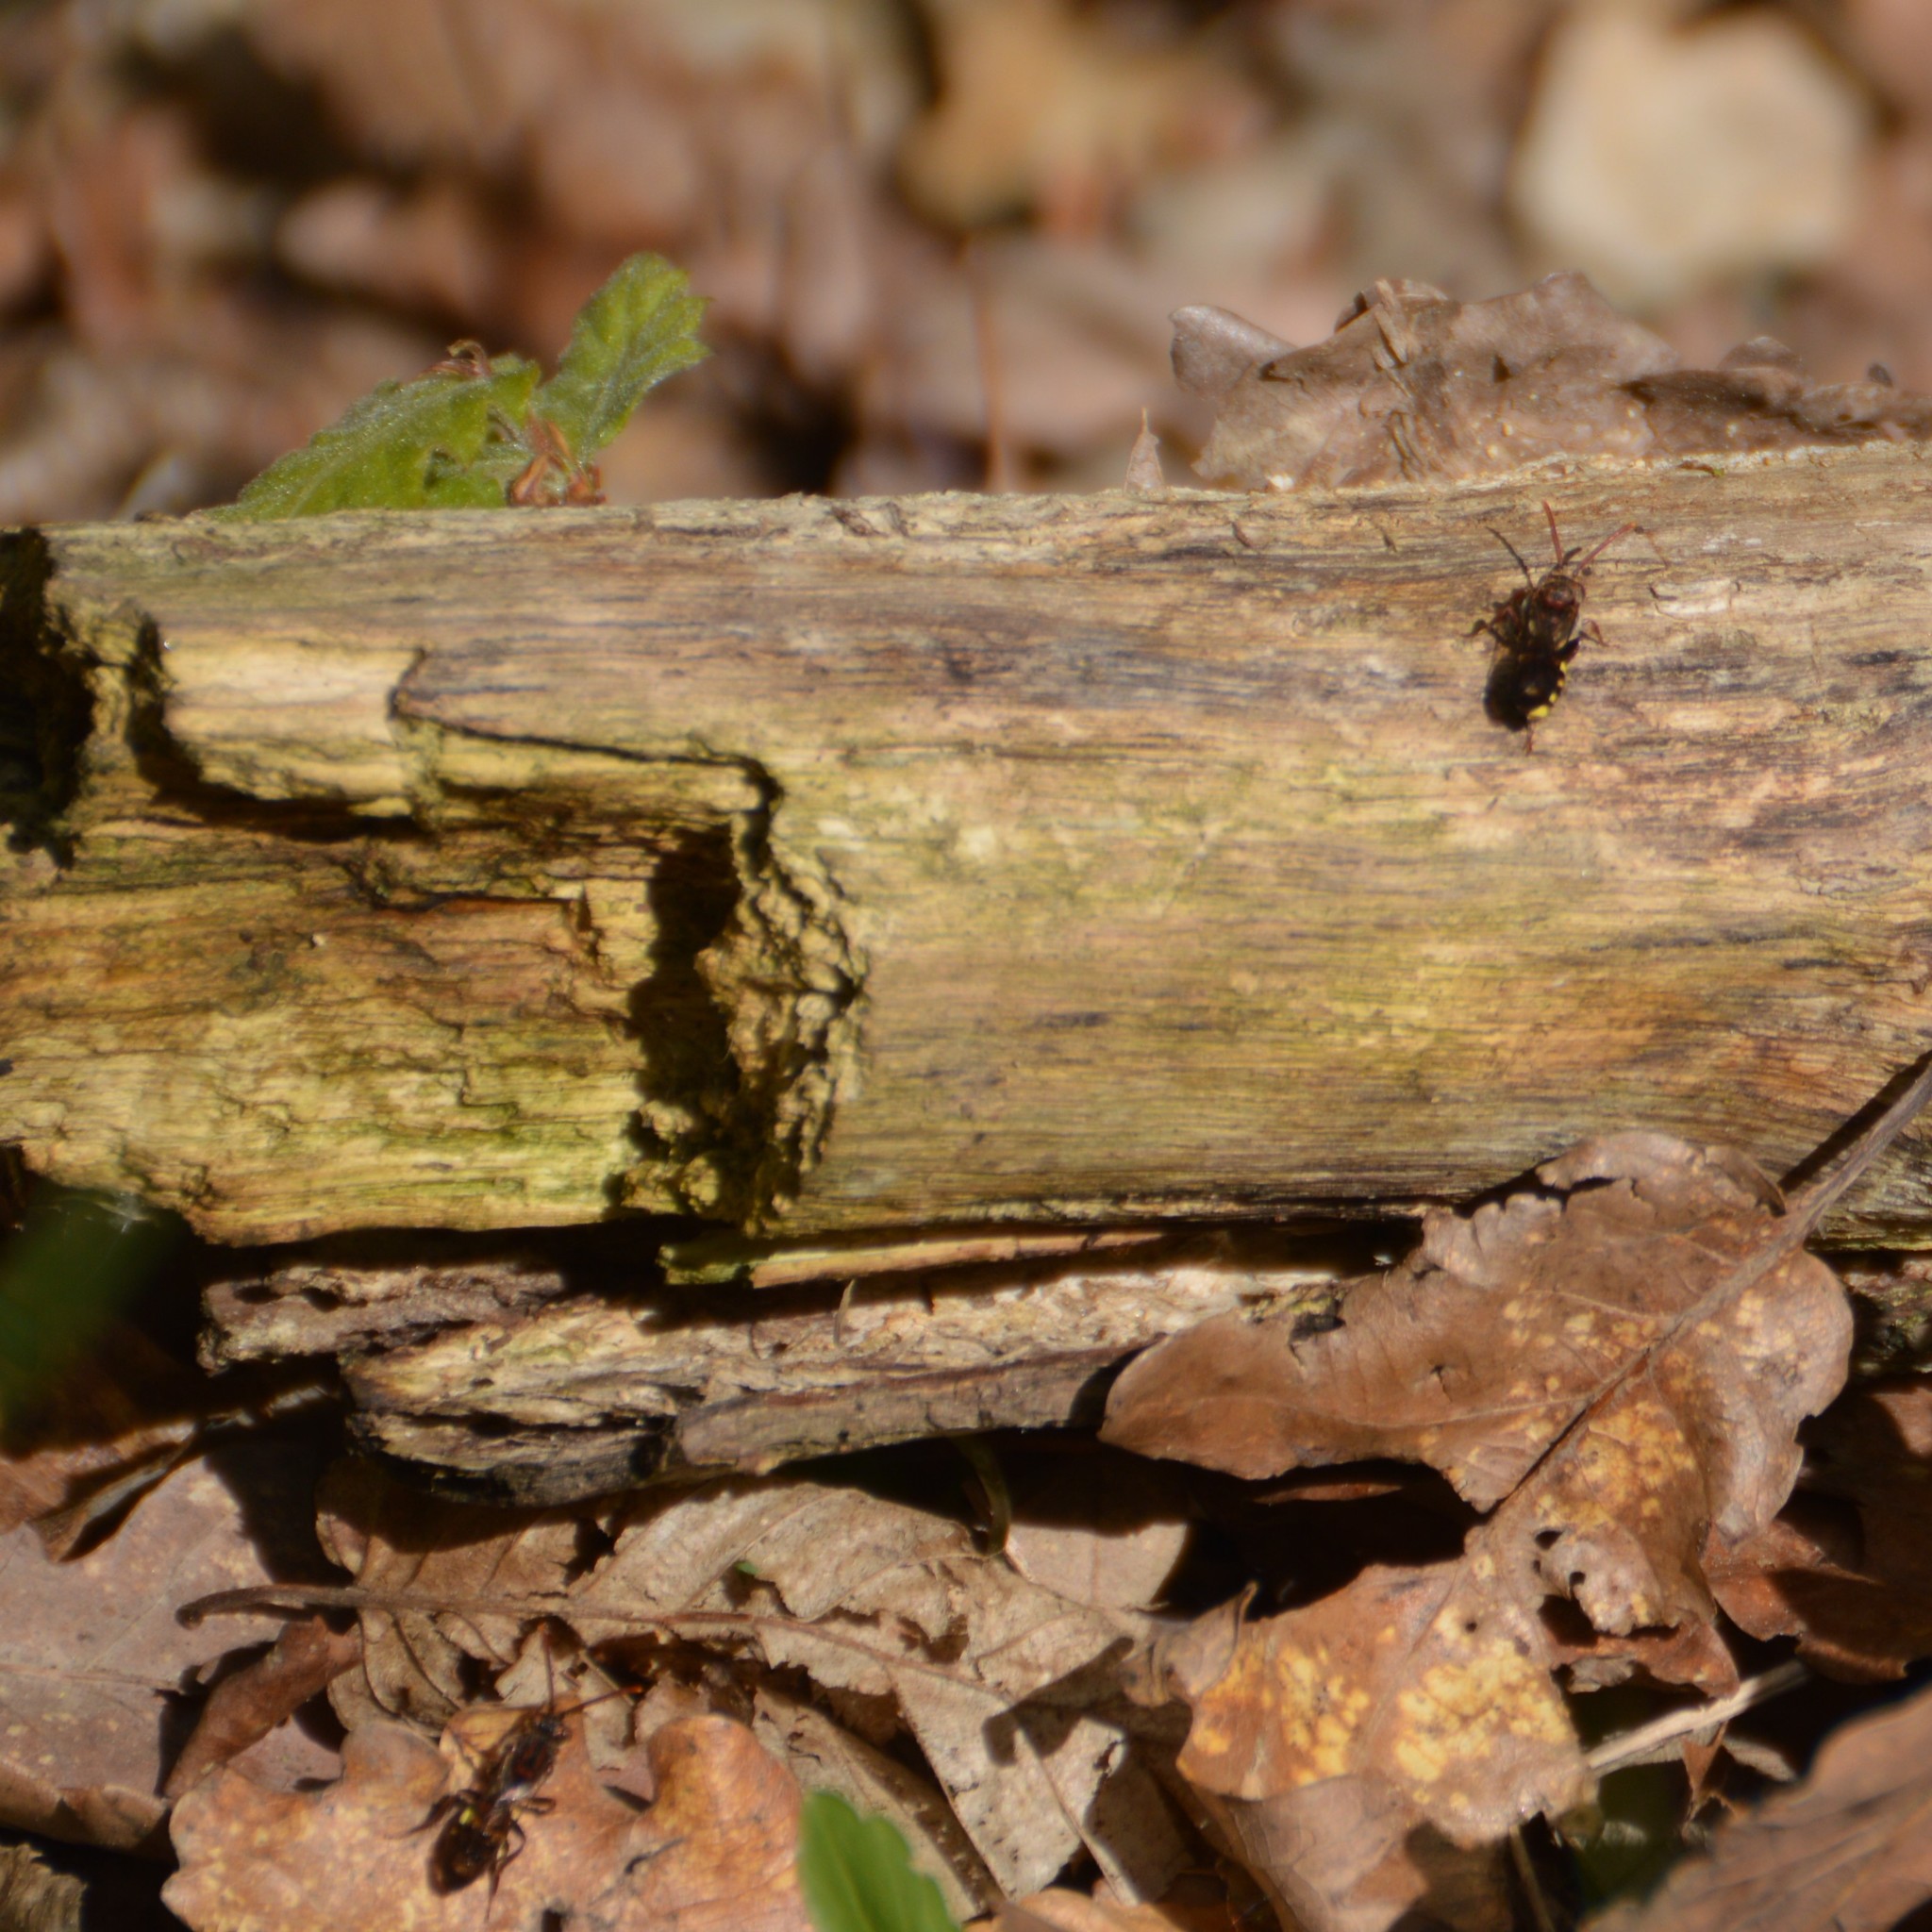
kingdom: Animalia
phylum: Arthropoda
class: Insecta
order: Hymenoptera
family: Apidae
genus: Nomada
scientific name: Nomada
